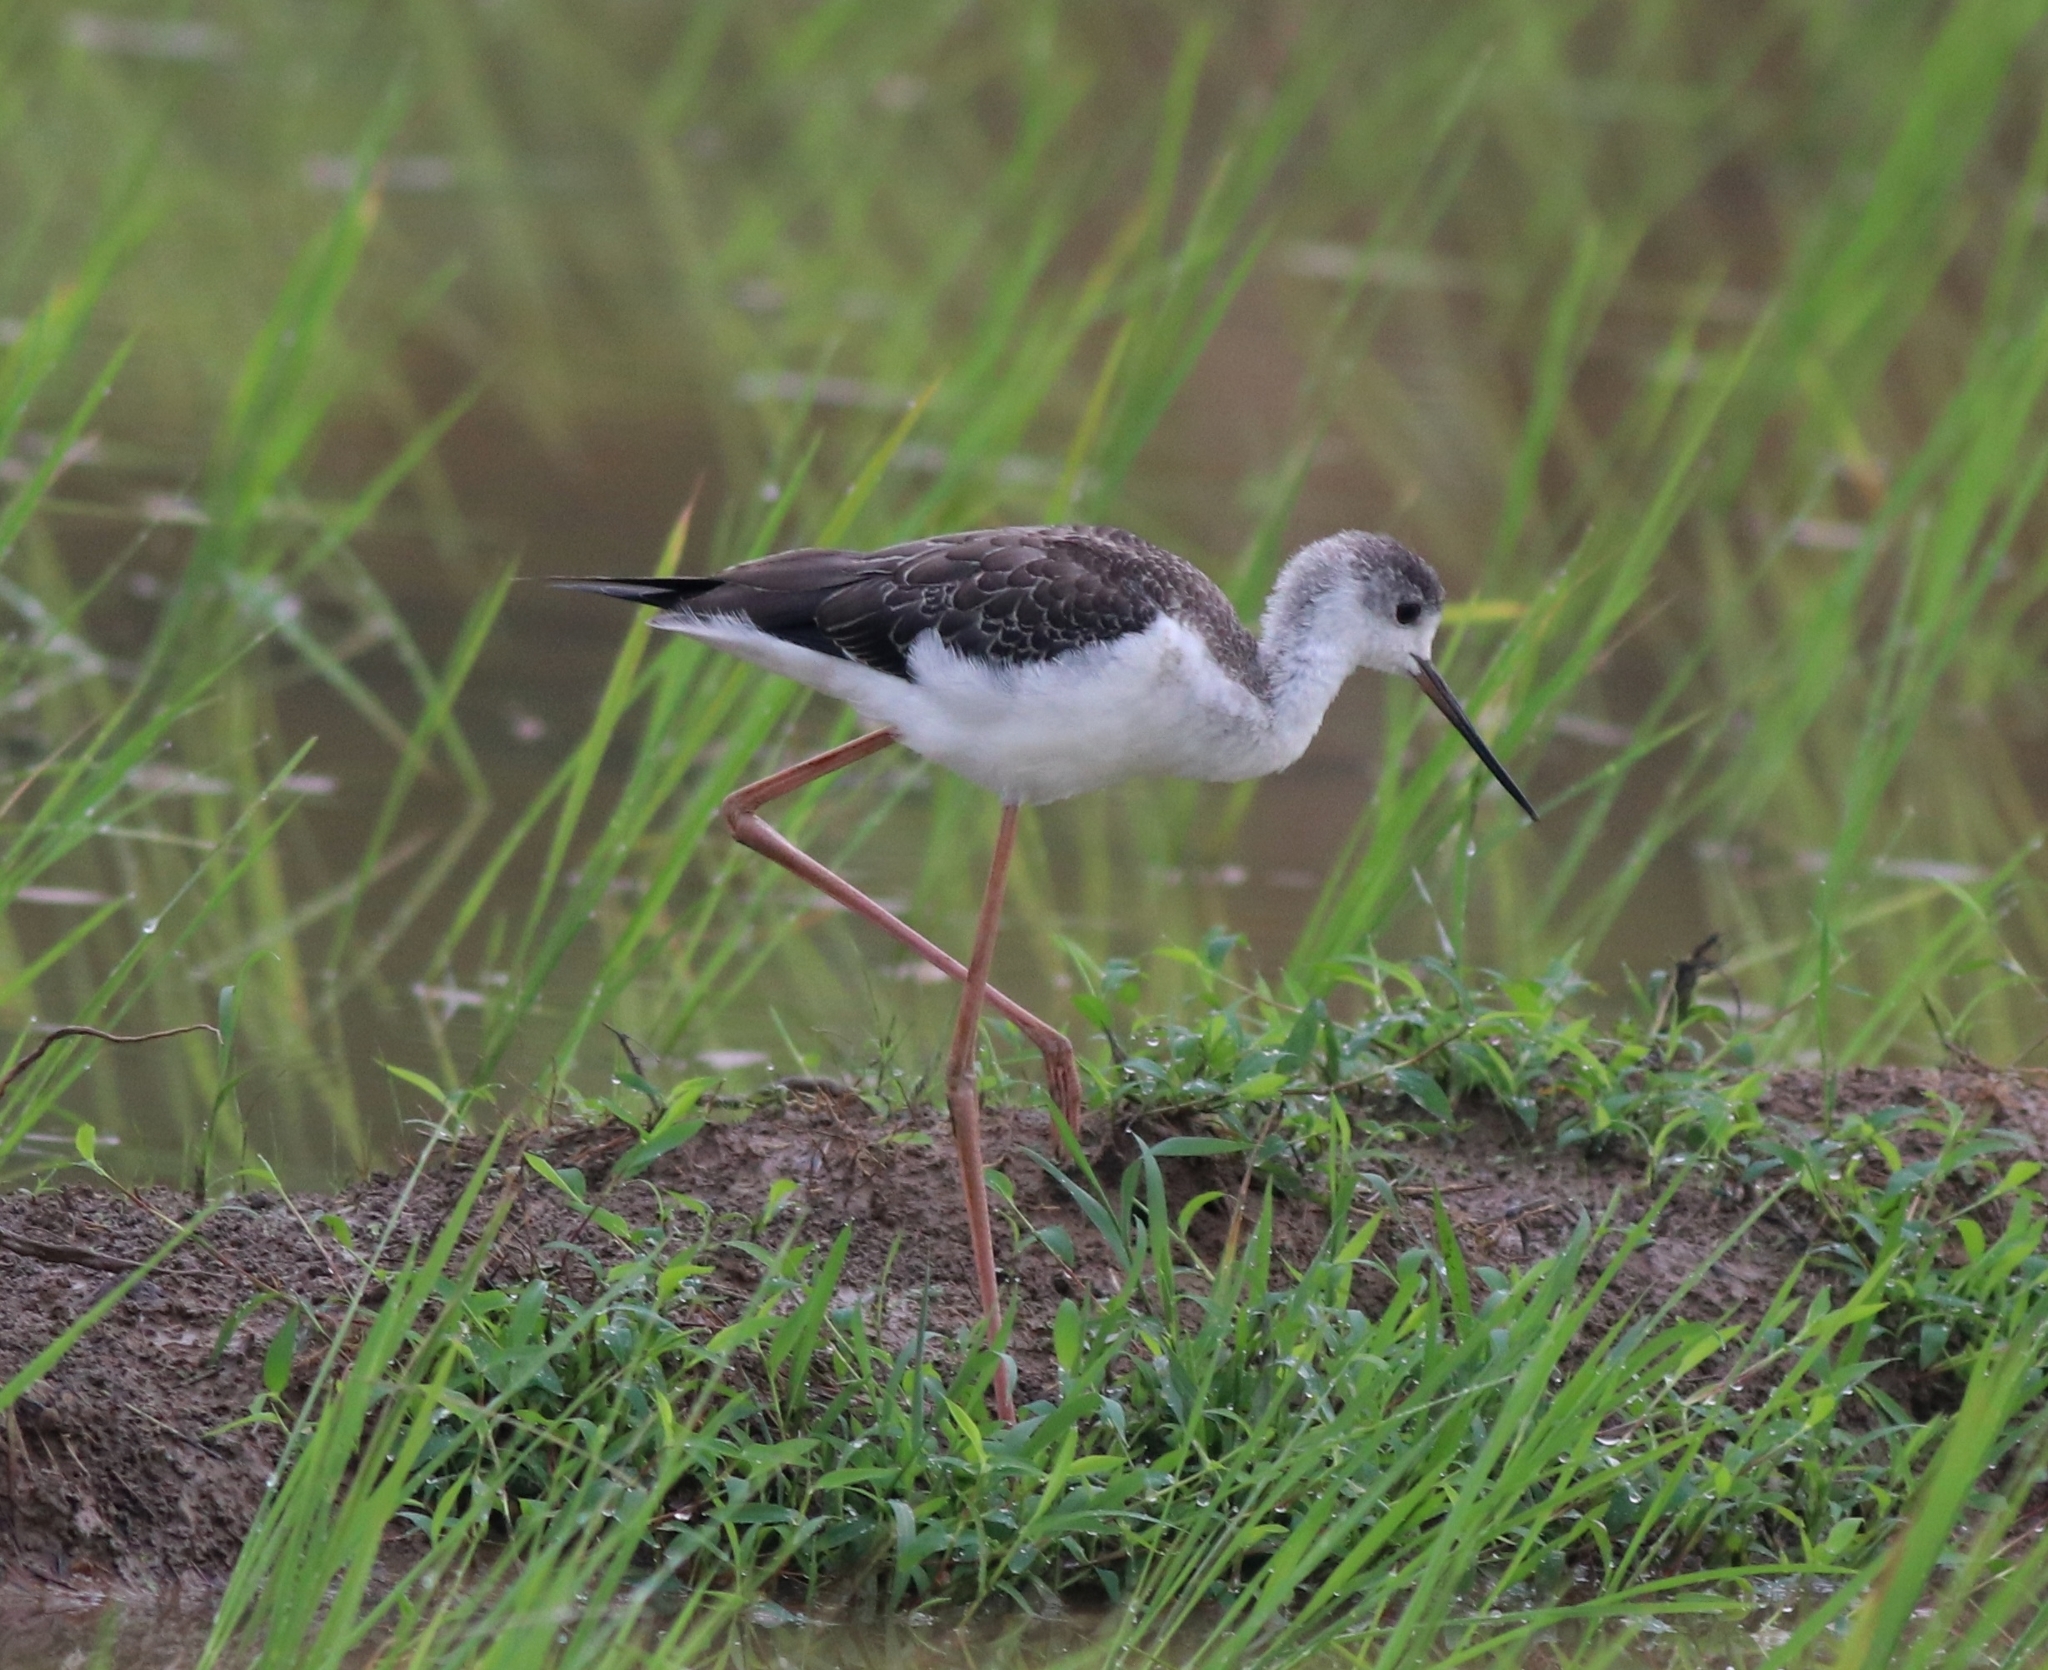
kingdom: Animalia
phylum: Chordata
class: Aves
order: Charadriiformes
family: Recurvirostridae
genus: Himantopus
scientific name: Himantopus himantopus
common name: Black-winged stilt
